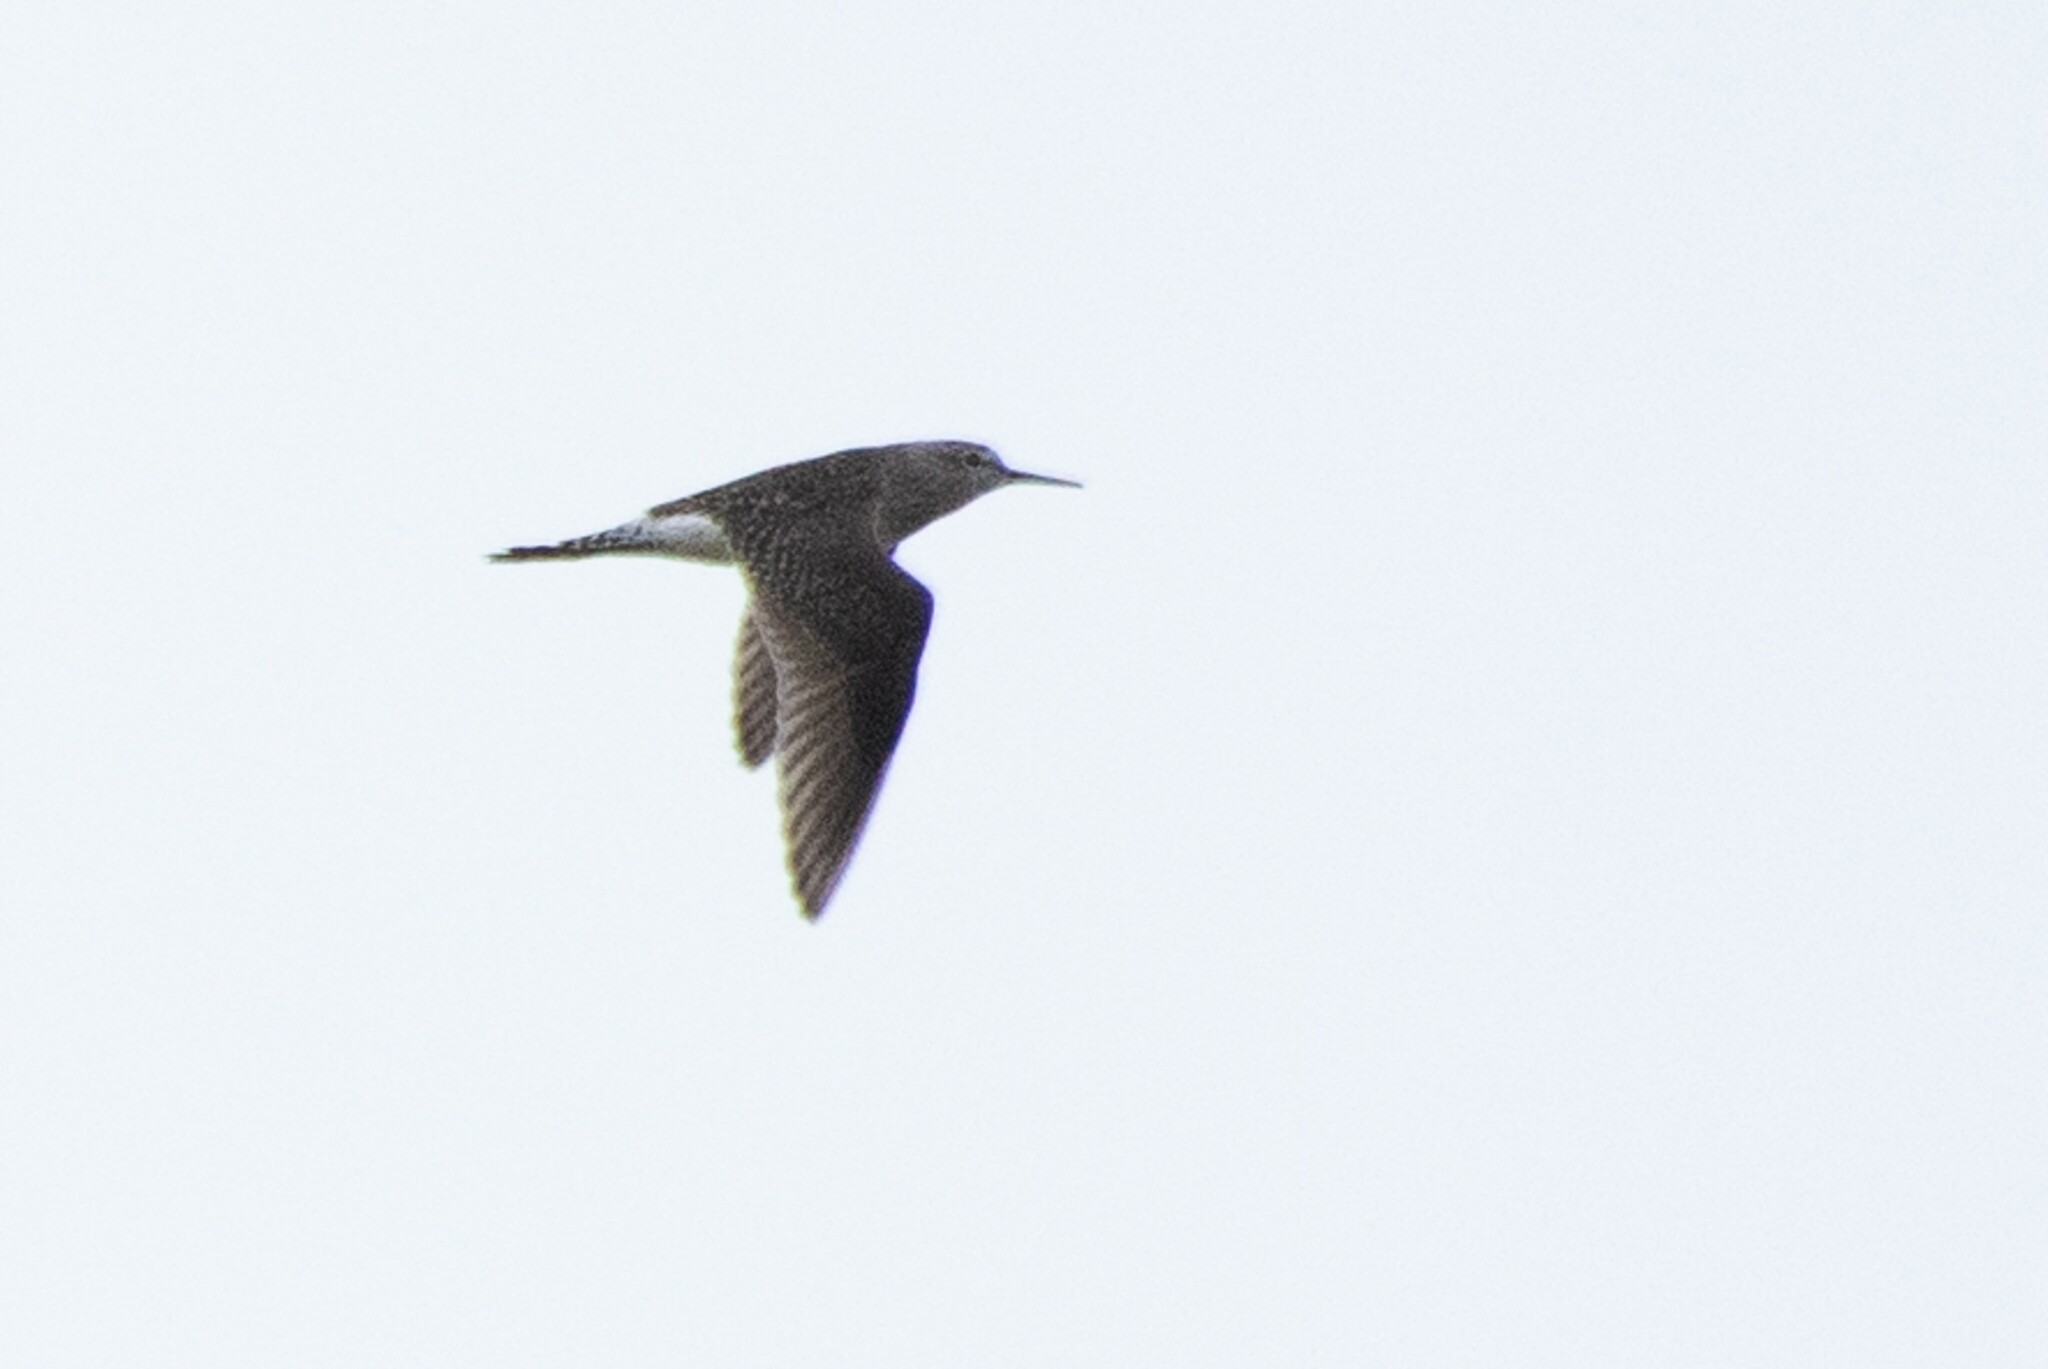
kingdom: Animalia
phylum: Chordata
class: Aves
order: Charadriiformes
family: Scolopacidae
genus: Tringa
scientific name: Tringa glareola
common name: Wood sandpiper
